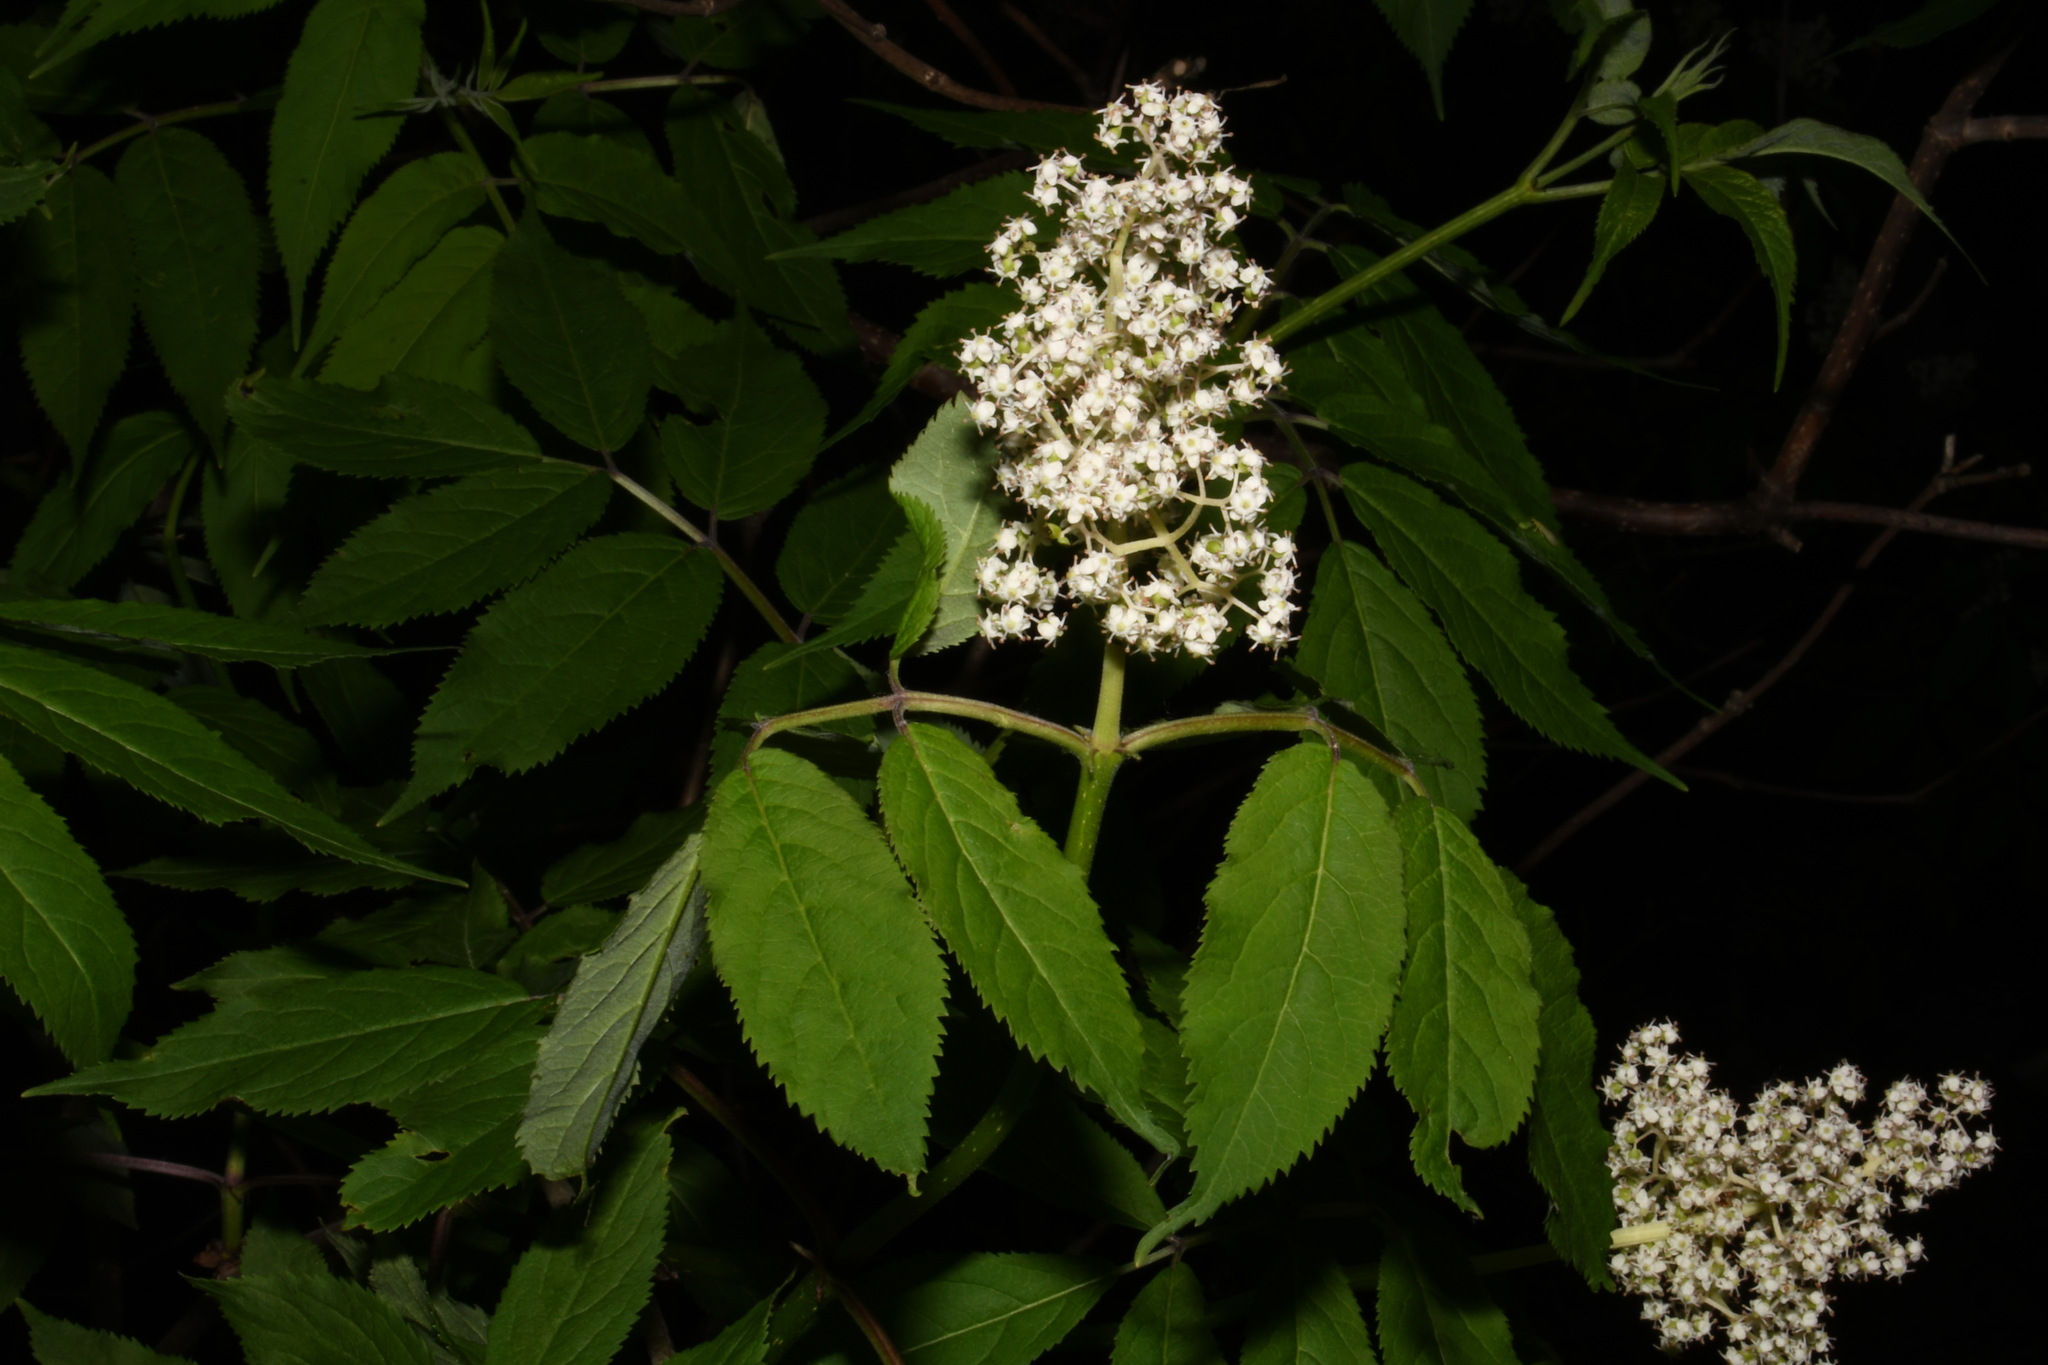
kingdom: Plantae
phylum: Tracheophyta
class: Magnoliopsida
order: Dipsacales
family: Viburnaceae
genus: Sambucus
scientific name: Sambucus racemosa
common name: Red-berried elder
